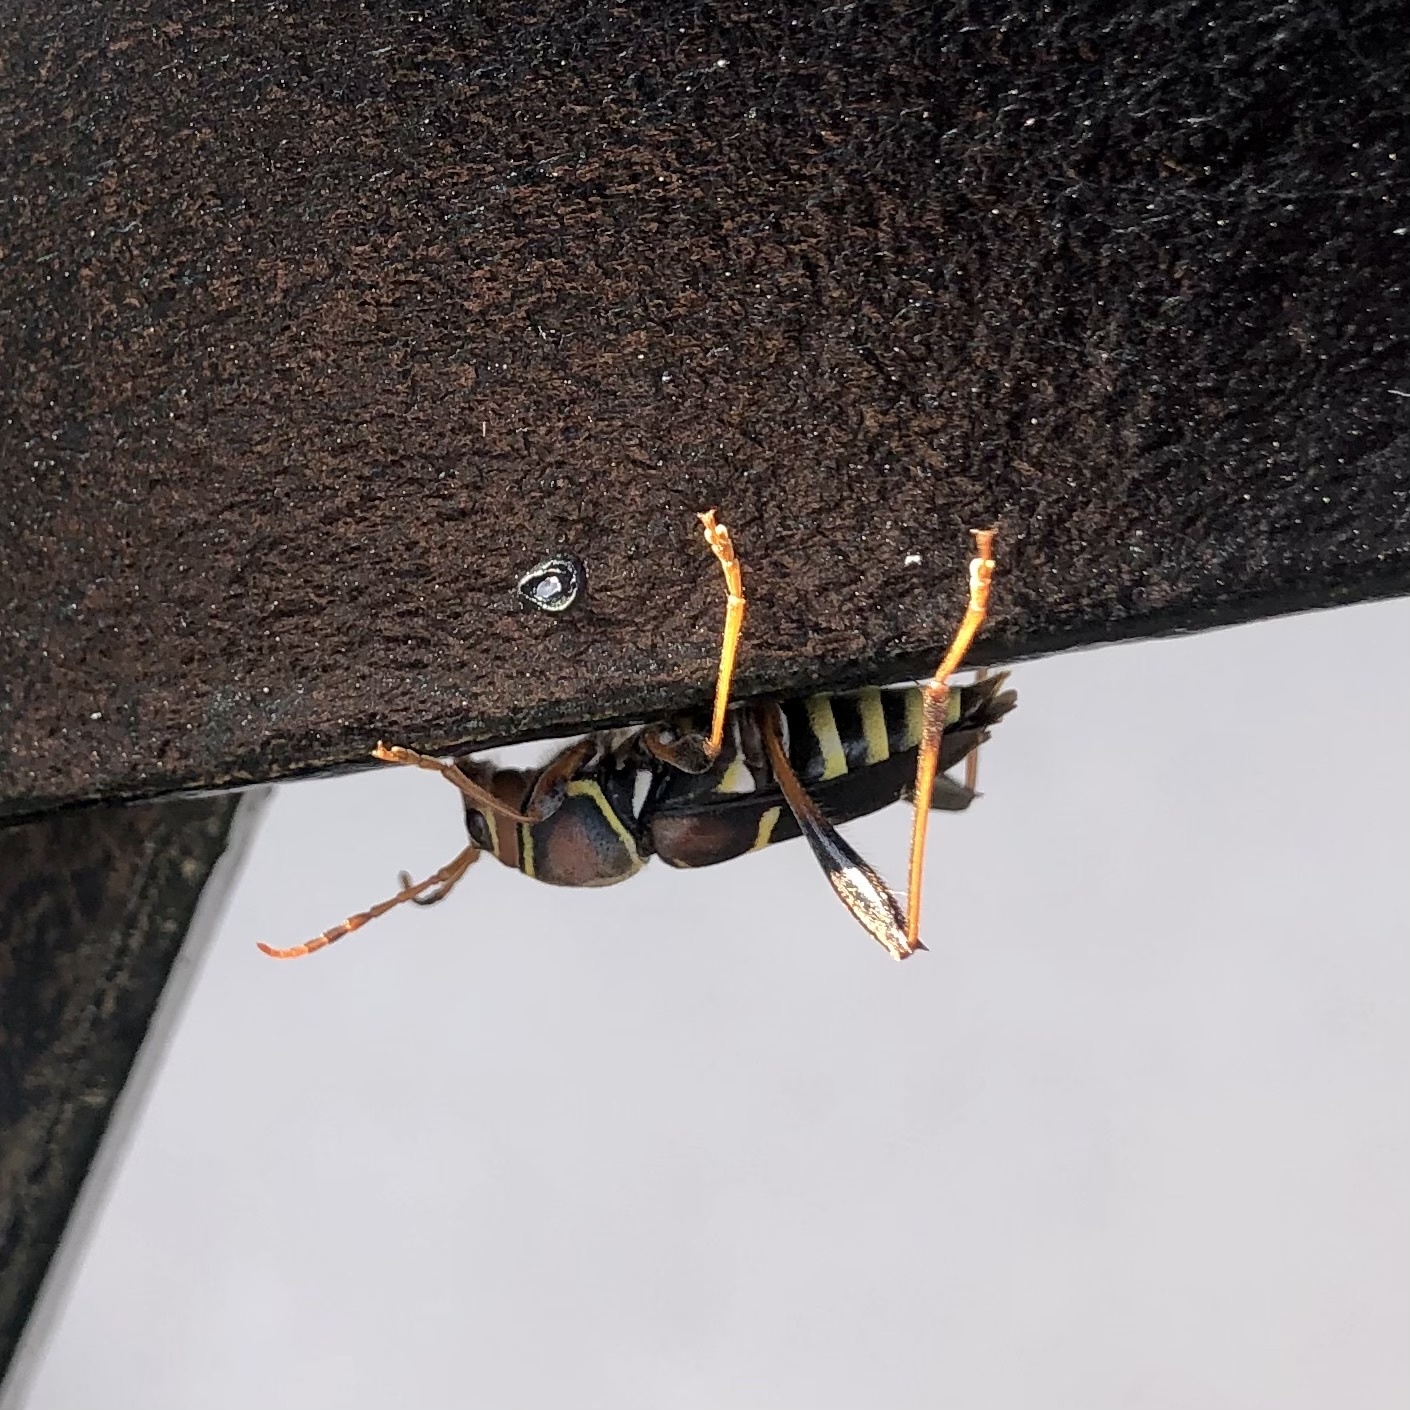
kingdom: Animalia
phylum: Arthropoda
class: Insecta
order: Coleoptera
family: Cerambycidae
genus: Neoclytus
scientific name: Neoclytus mucronatus
